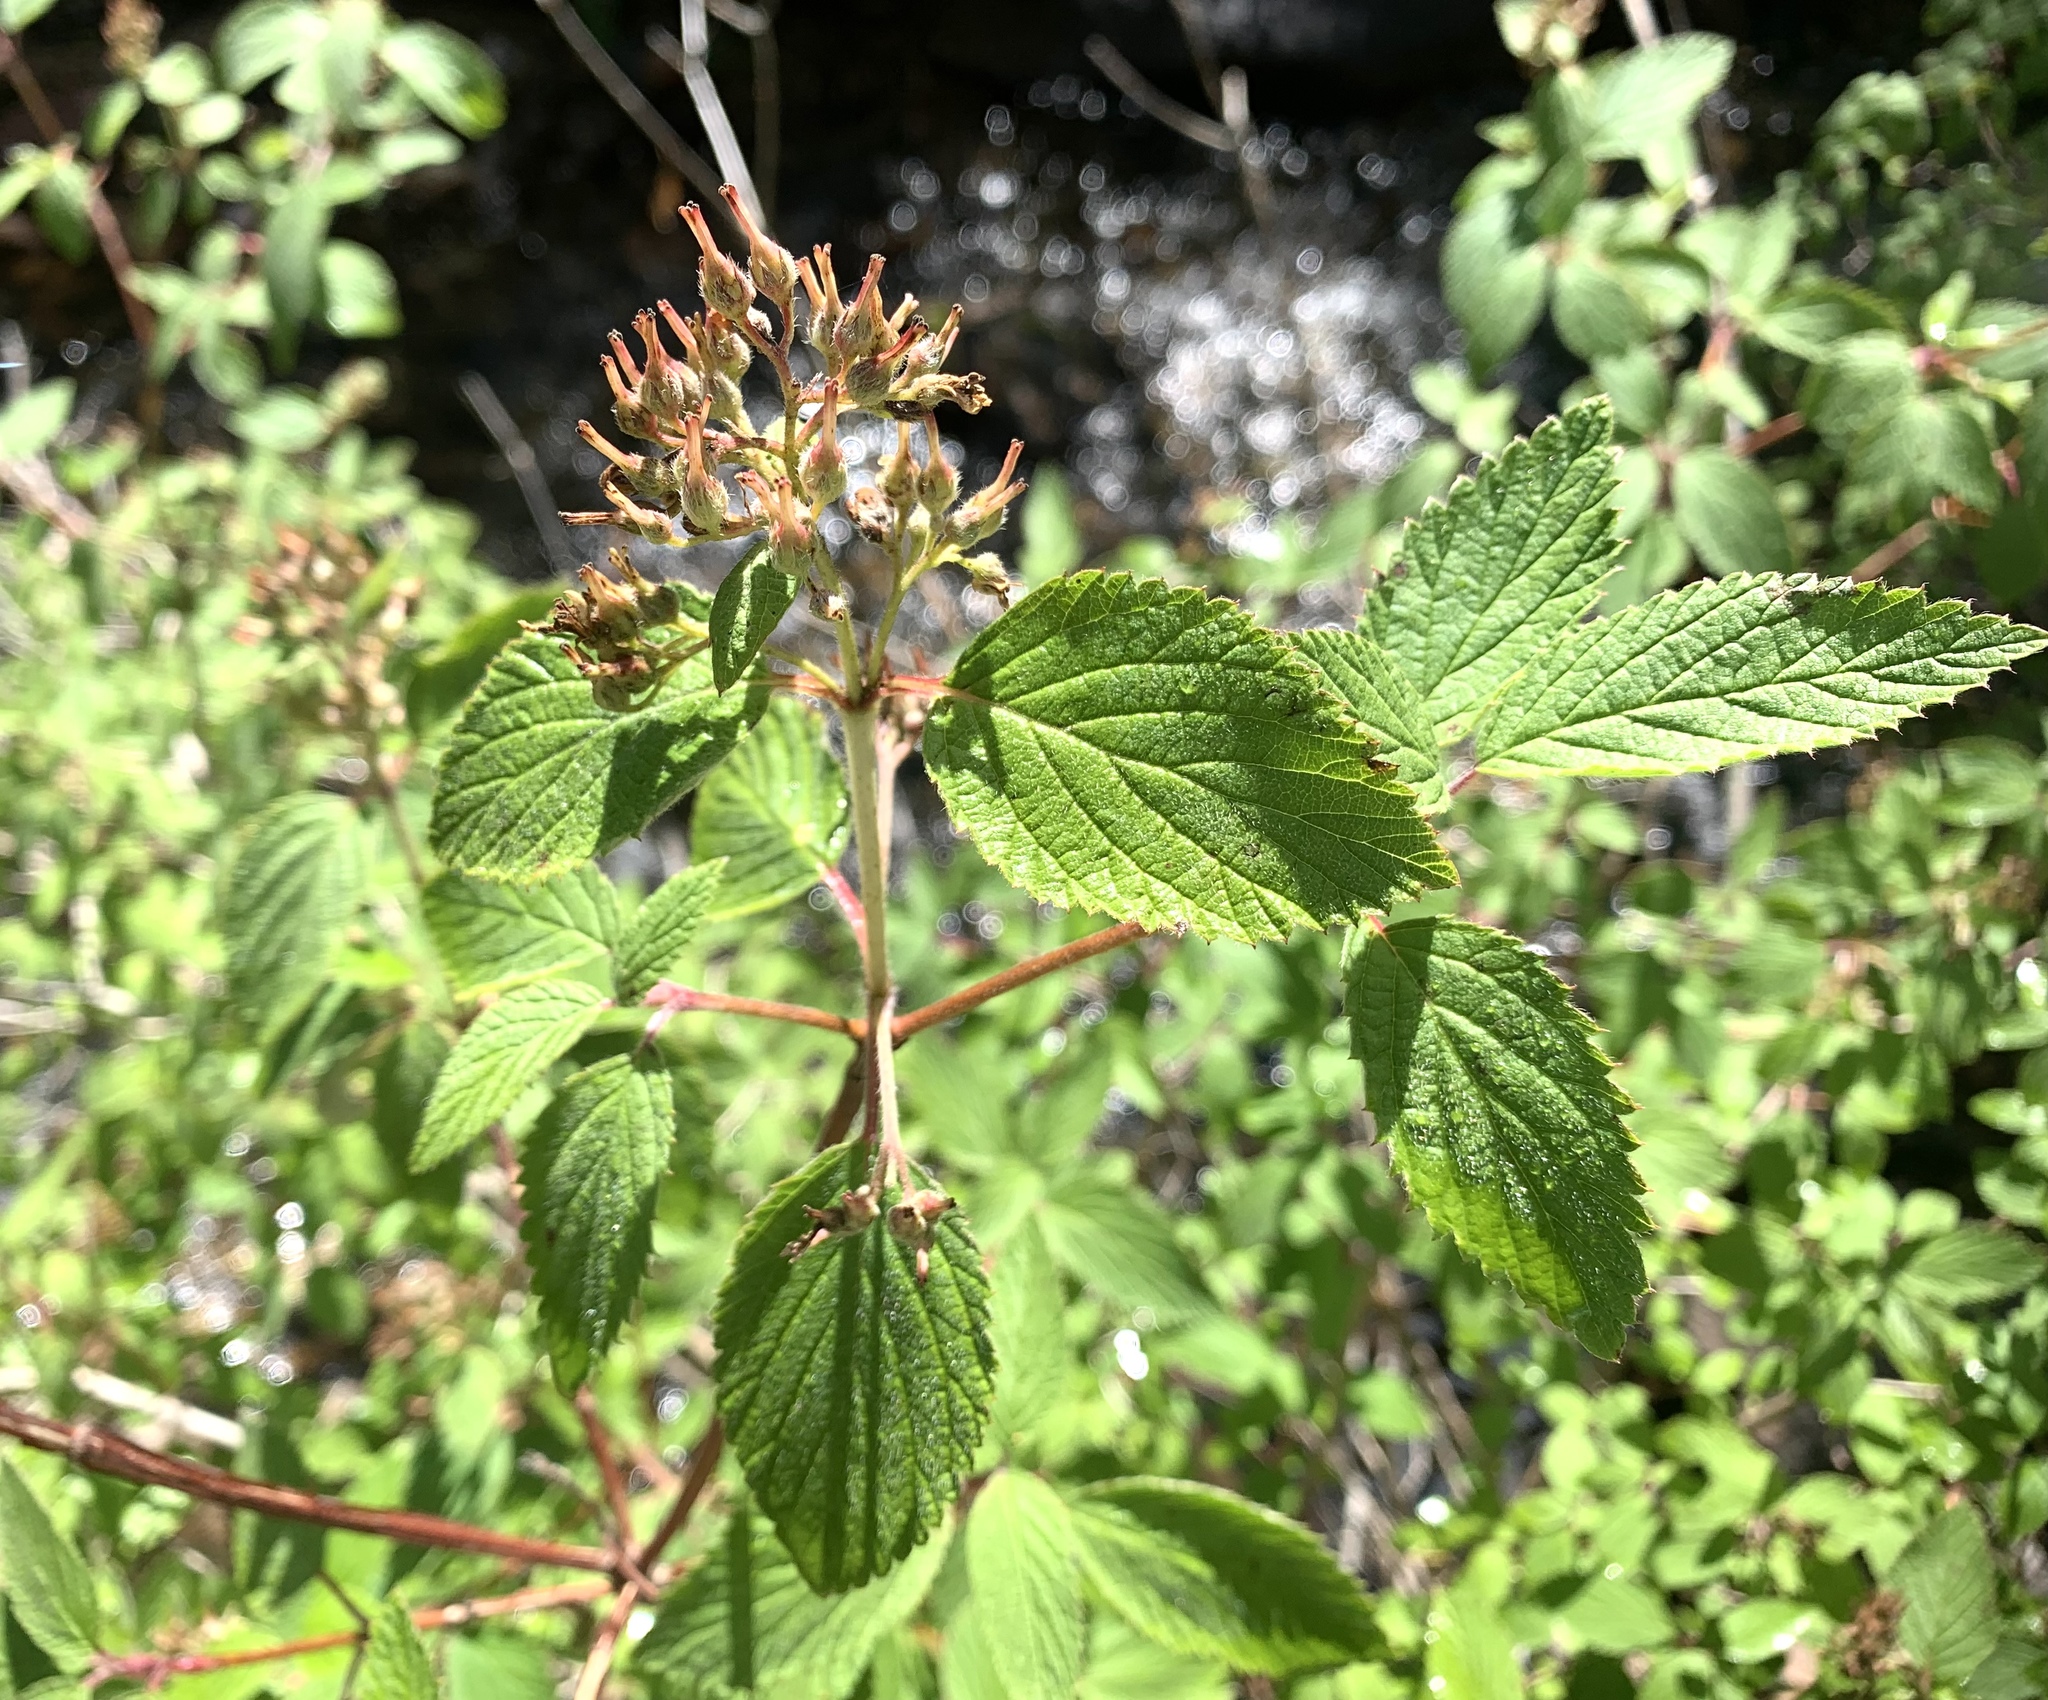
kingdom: Plantae
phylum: Tracheophyta
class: Magnoliopsida
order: Cornales
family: Hydrangeaceae
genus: Jamesia
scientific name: Jamesia americana
